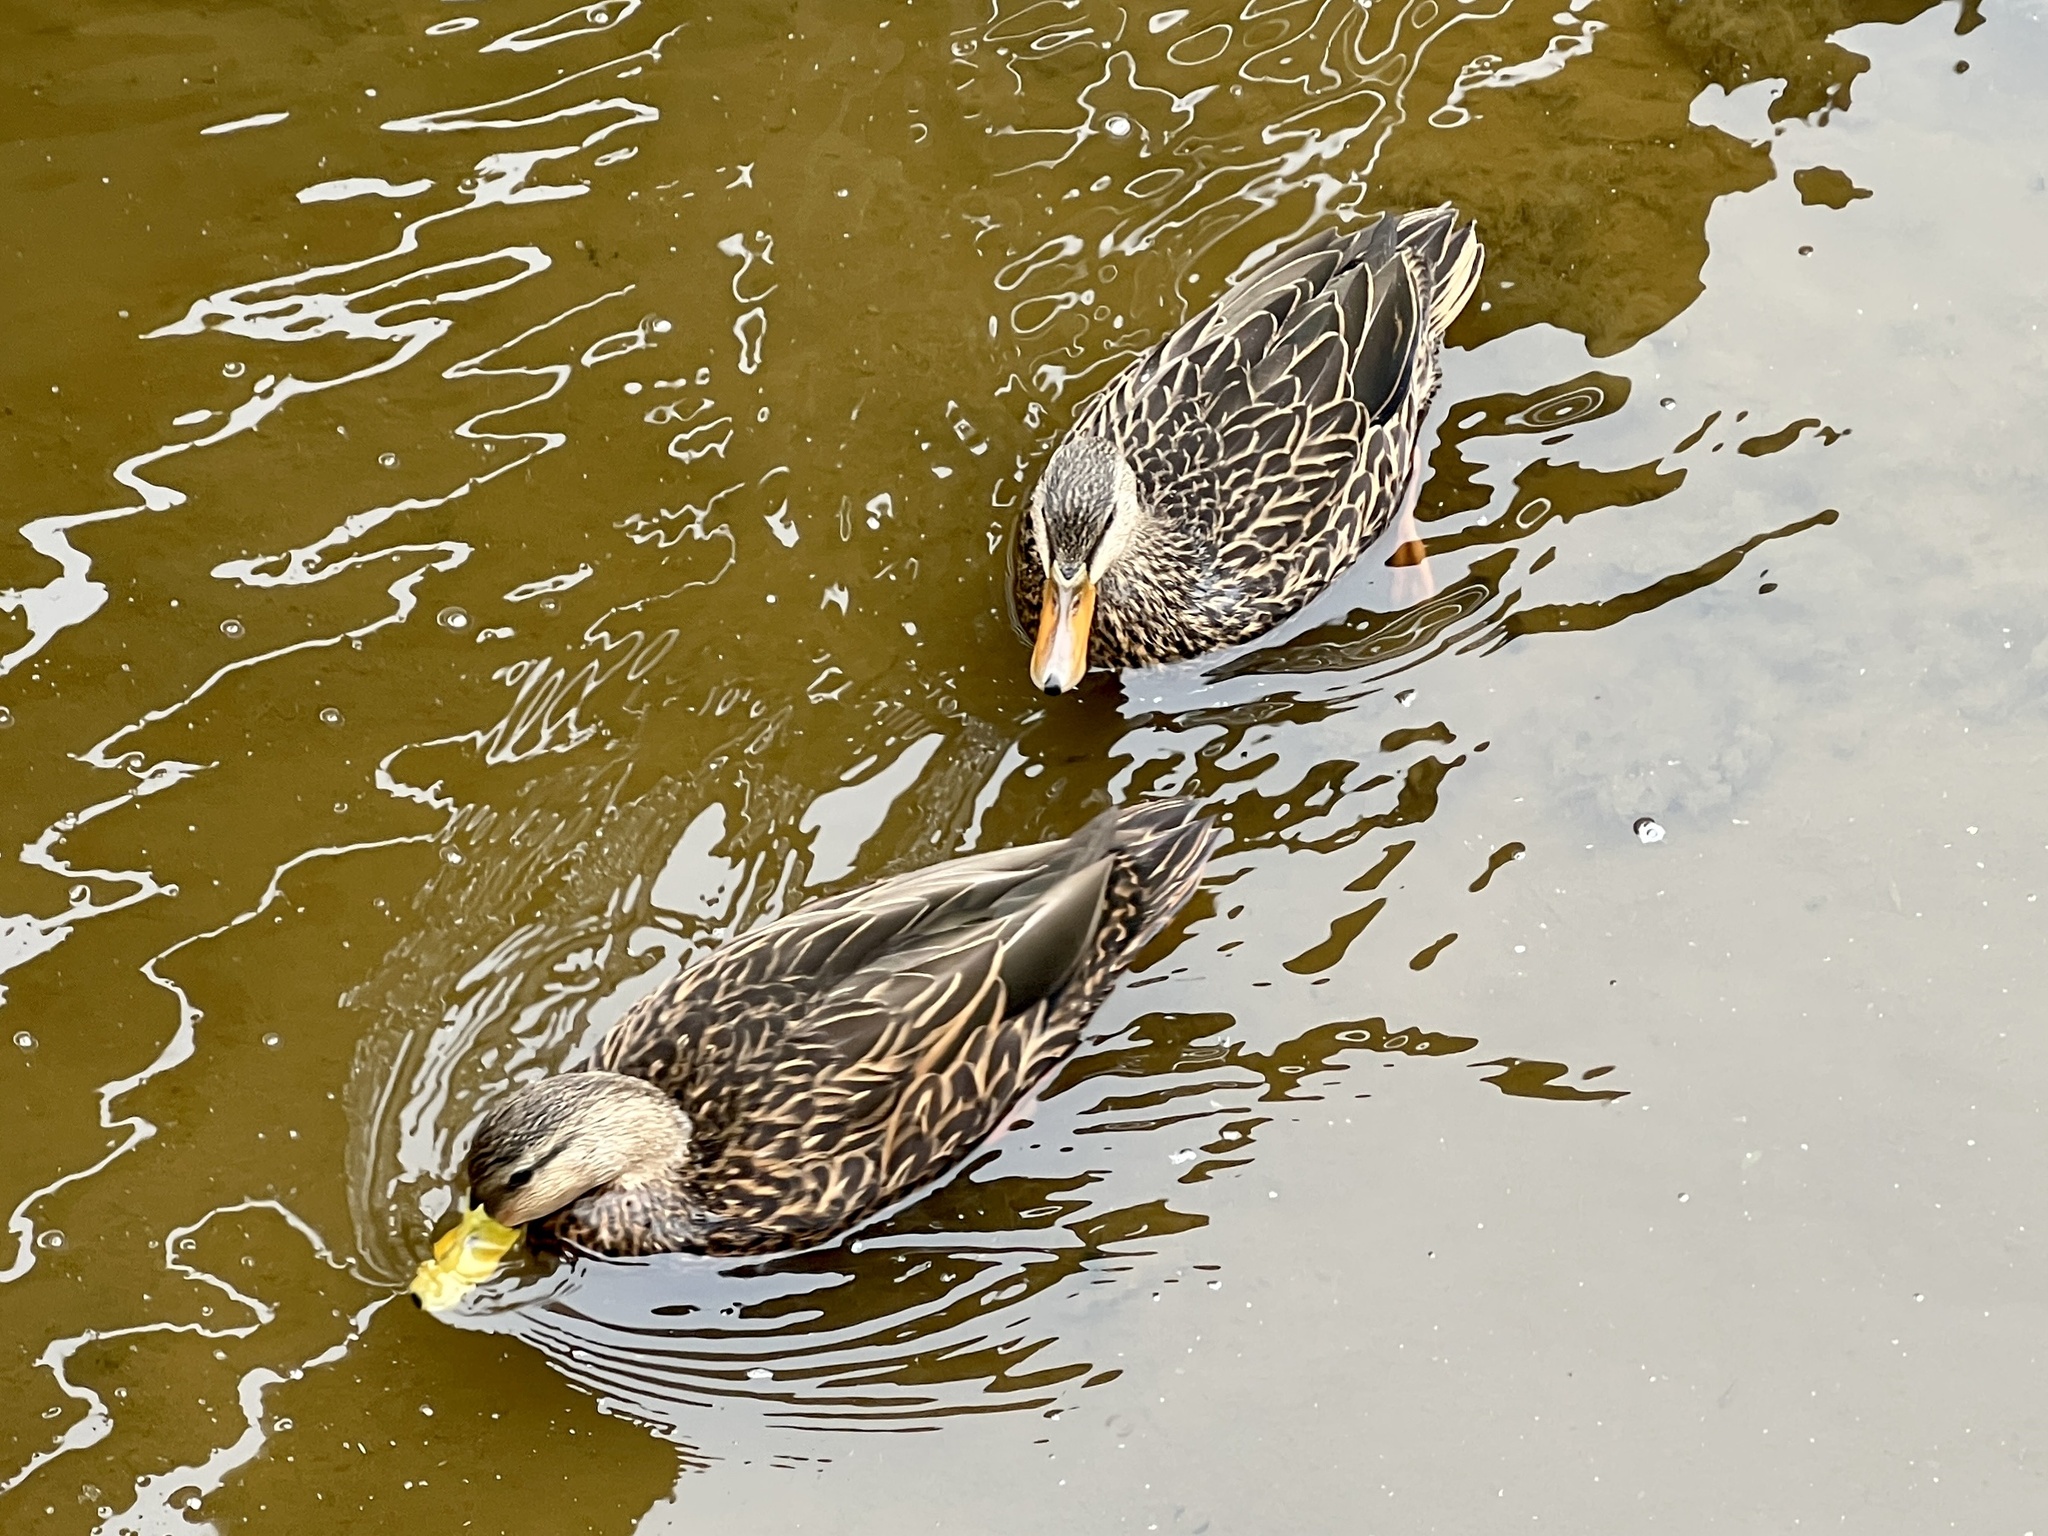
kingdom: Animalia
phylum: Chordata
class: Aves
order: Anseriformes
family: Anatidae
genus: Anas
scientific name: Anas fulvigula
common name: Mottled duck
